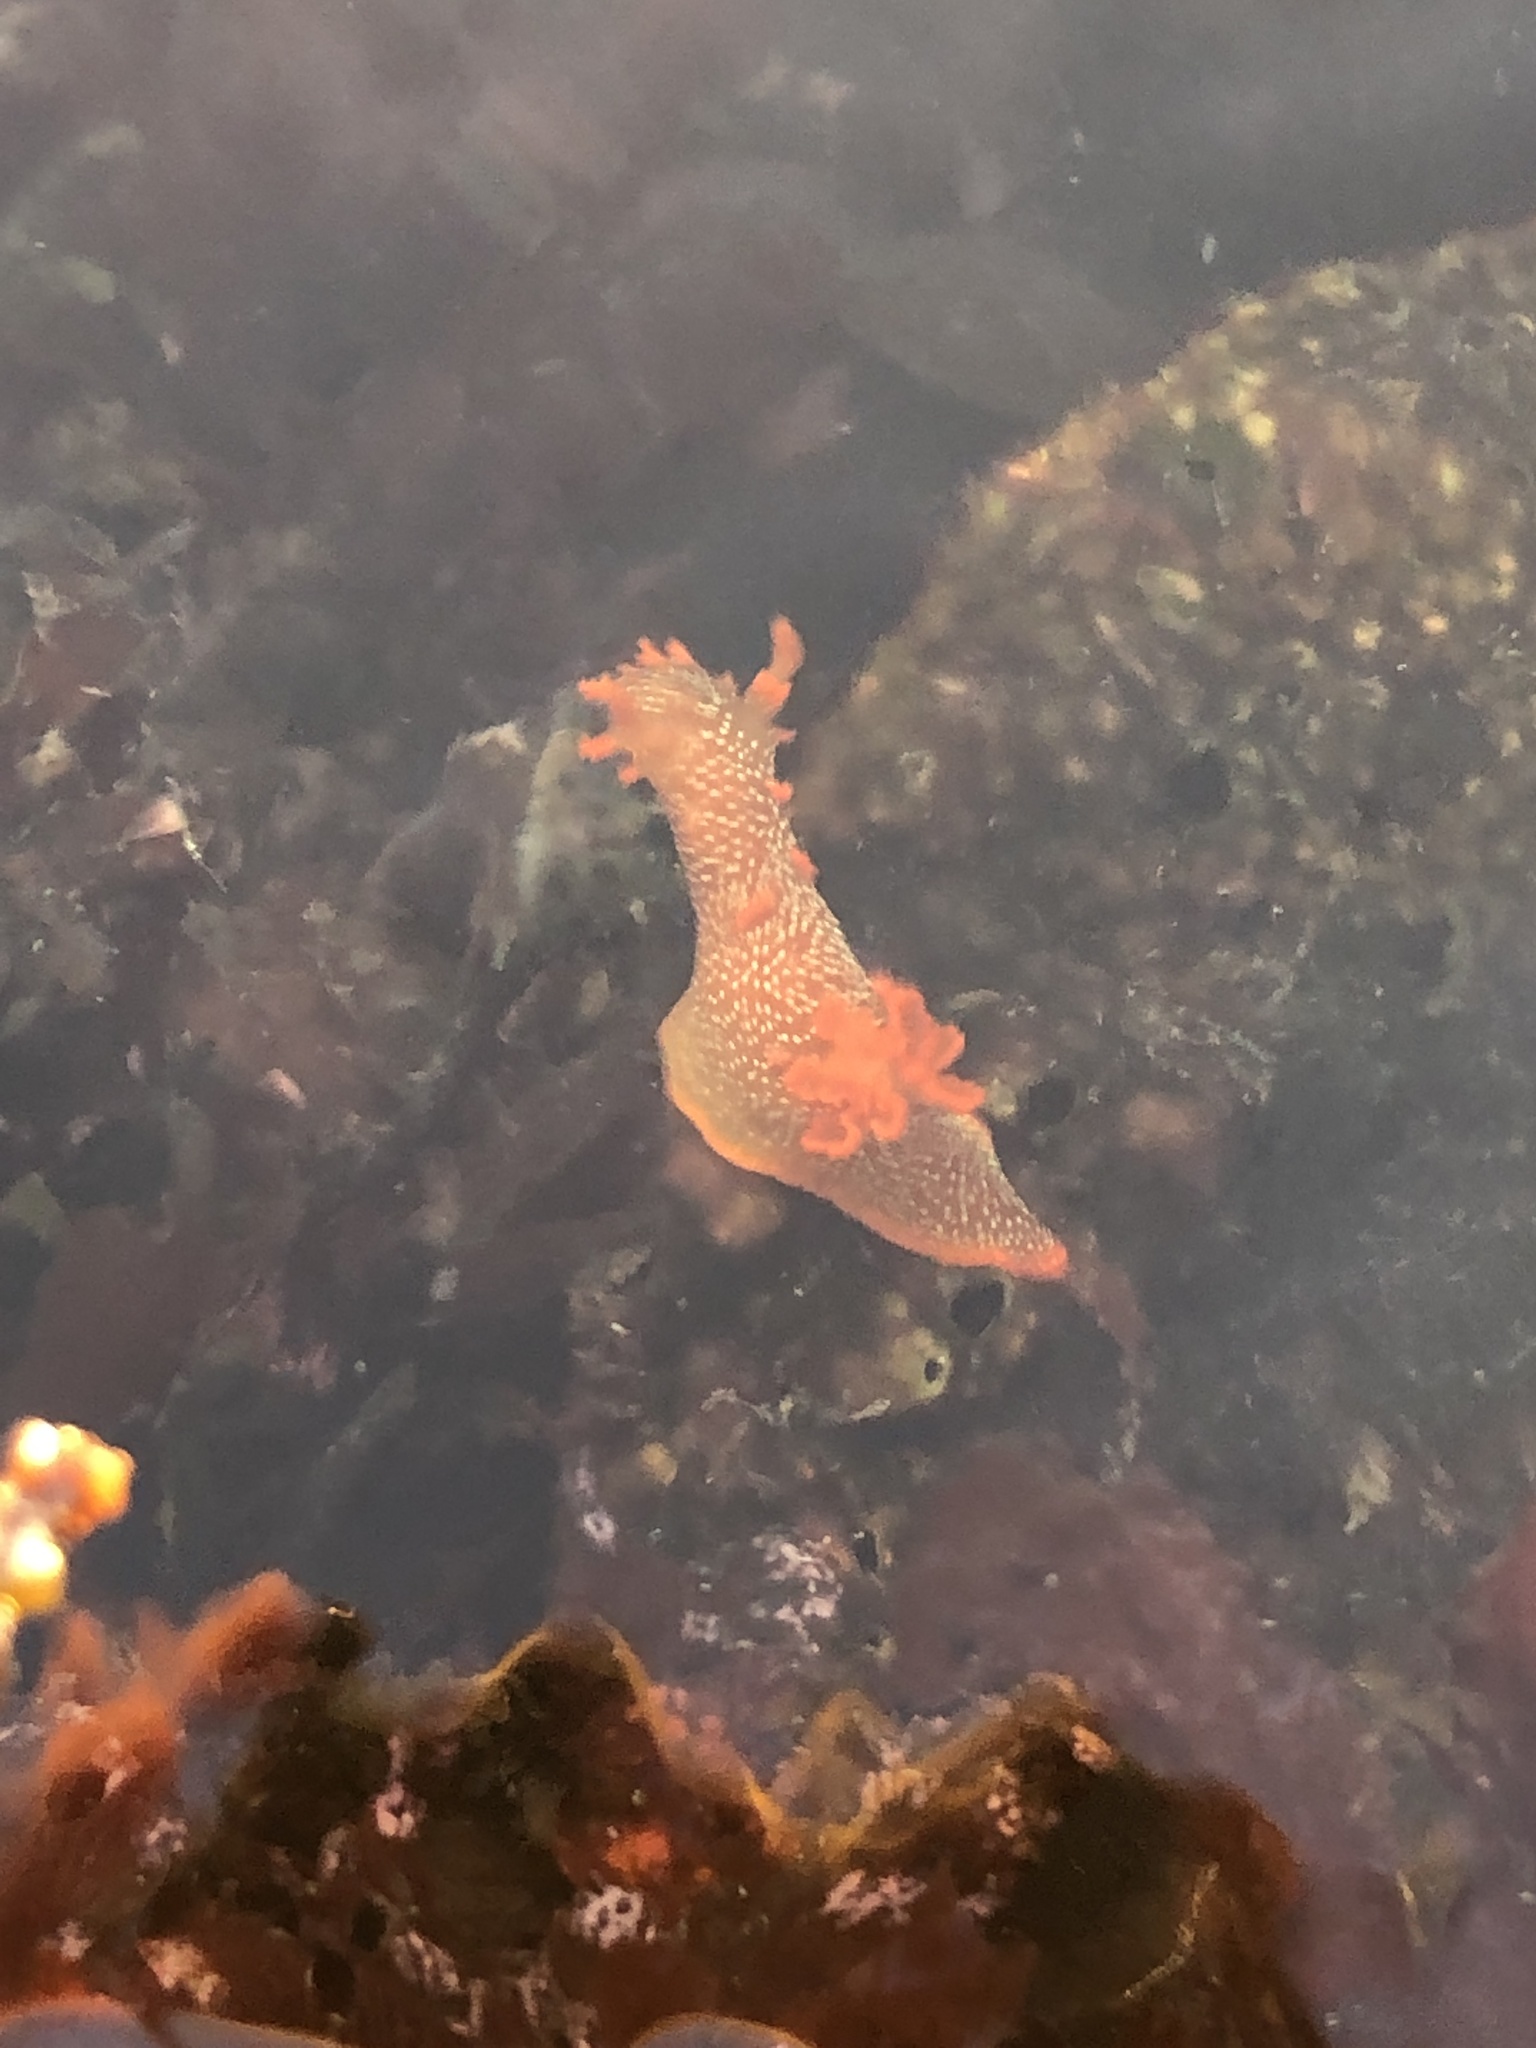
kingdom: Animalia
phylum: Mollusca
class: Gastropoda
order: Nudibranchia
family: Polyceridae
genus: Triopha
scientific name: Triopha maculata
